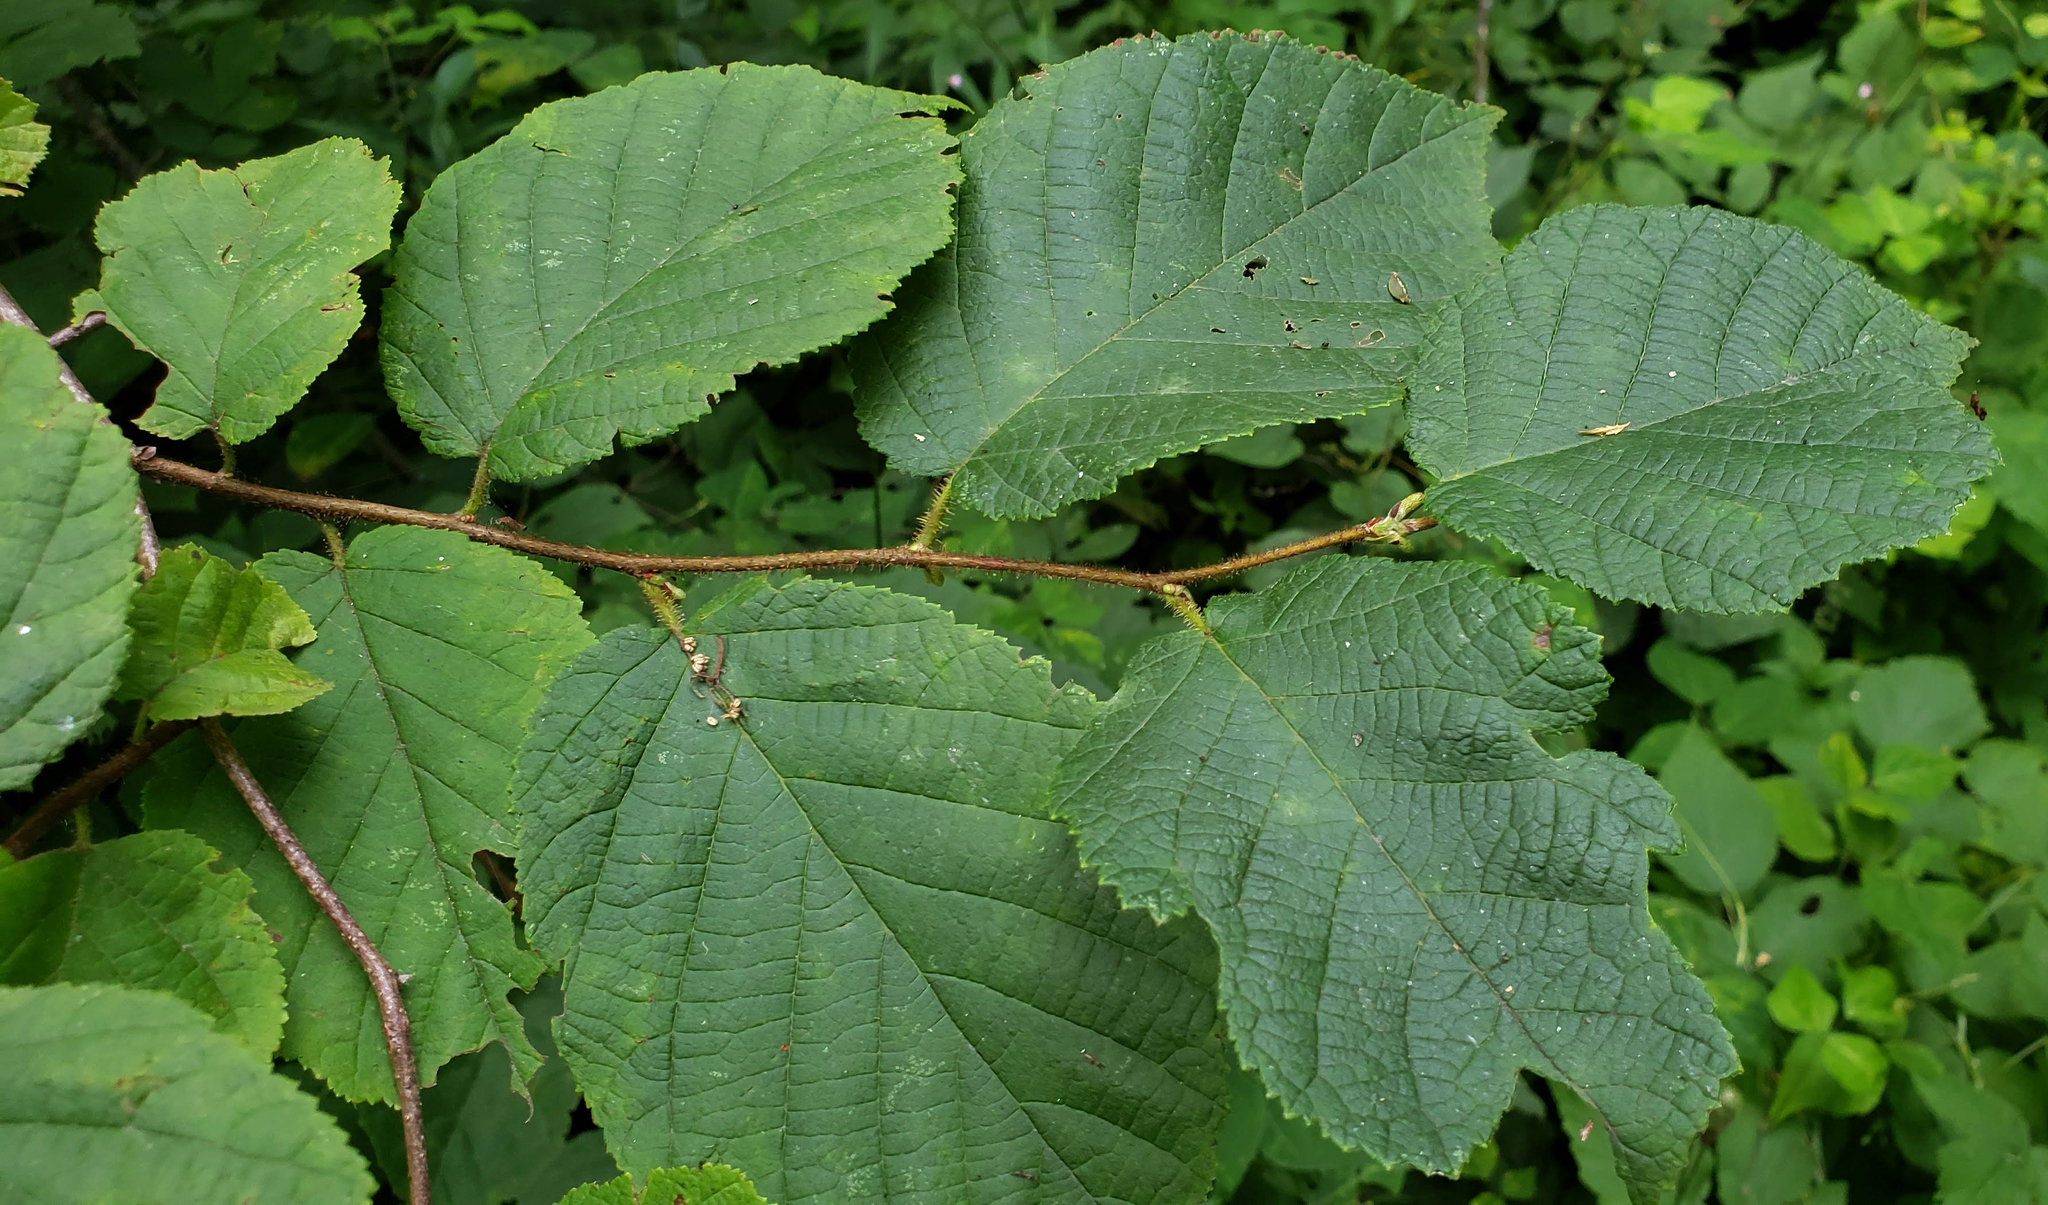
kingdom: Plantae
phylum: Tracheophyta
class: Magnoliopsida
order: Fagales
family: Betulaceae
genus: Corylus
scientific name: Corylus americana
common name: American hazel
